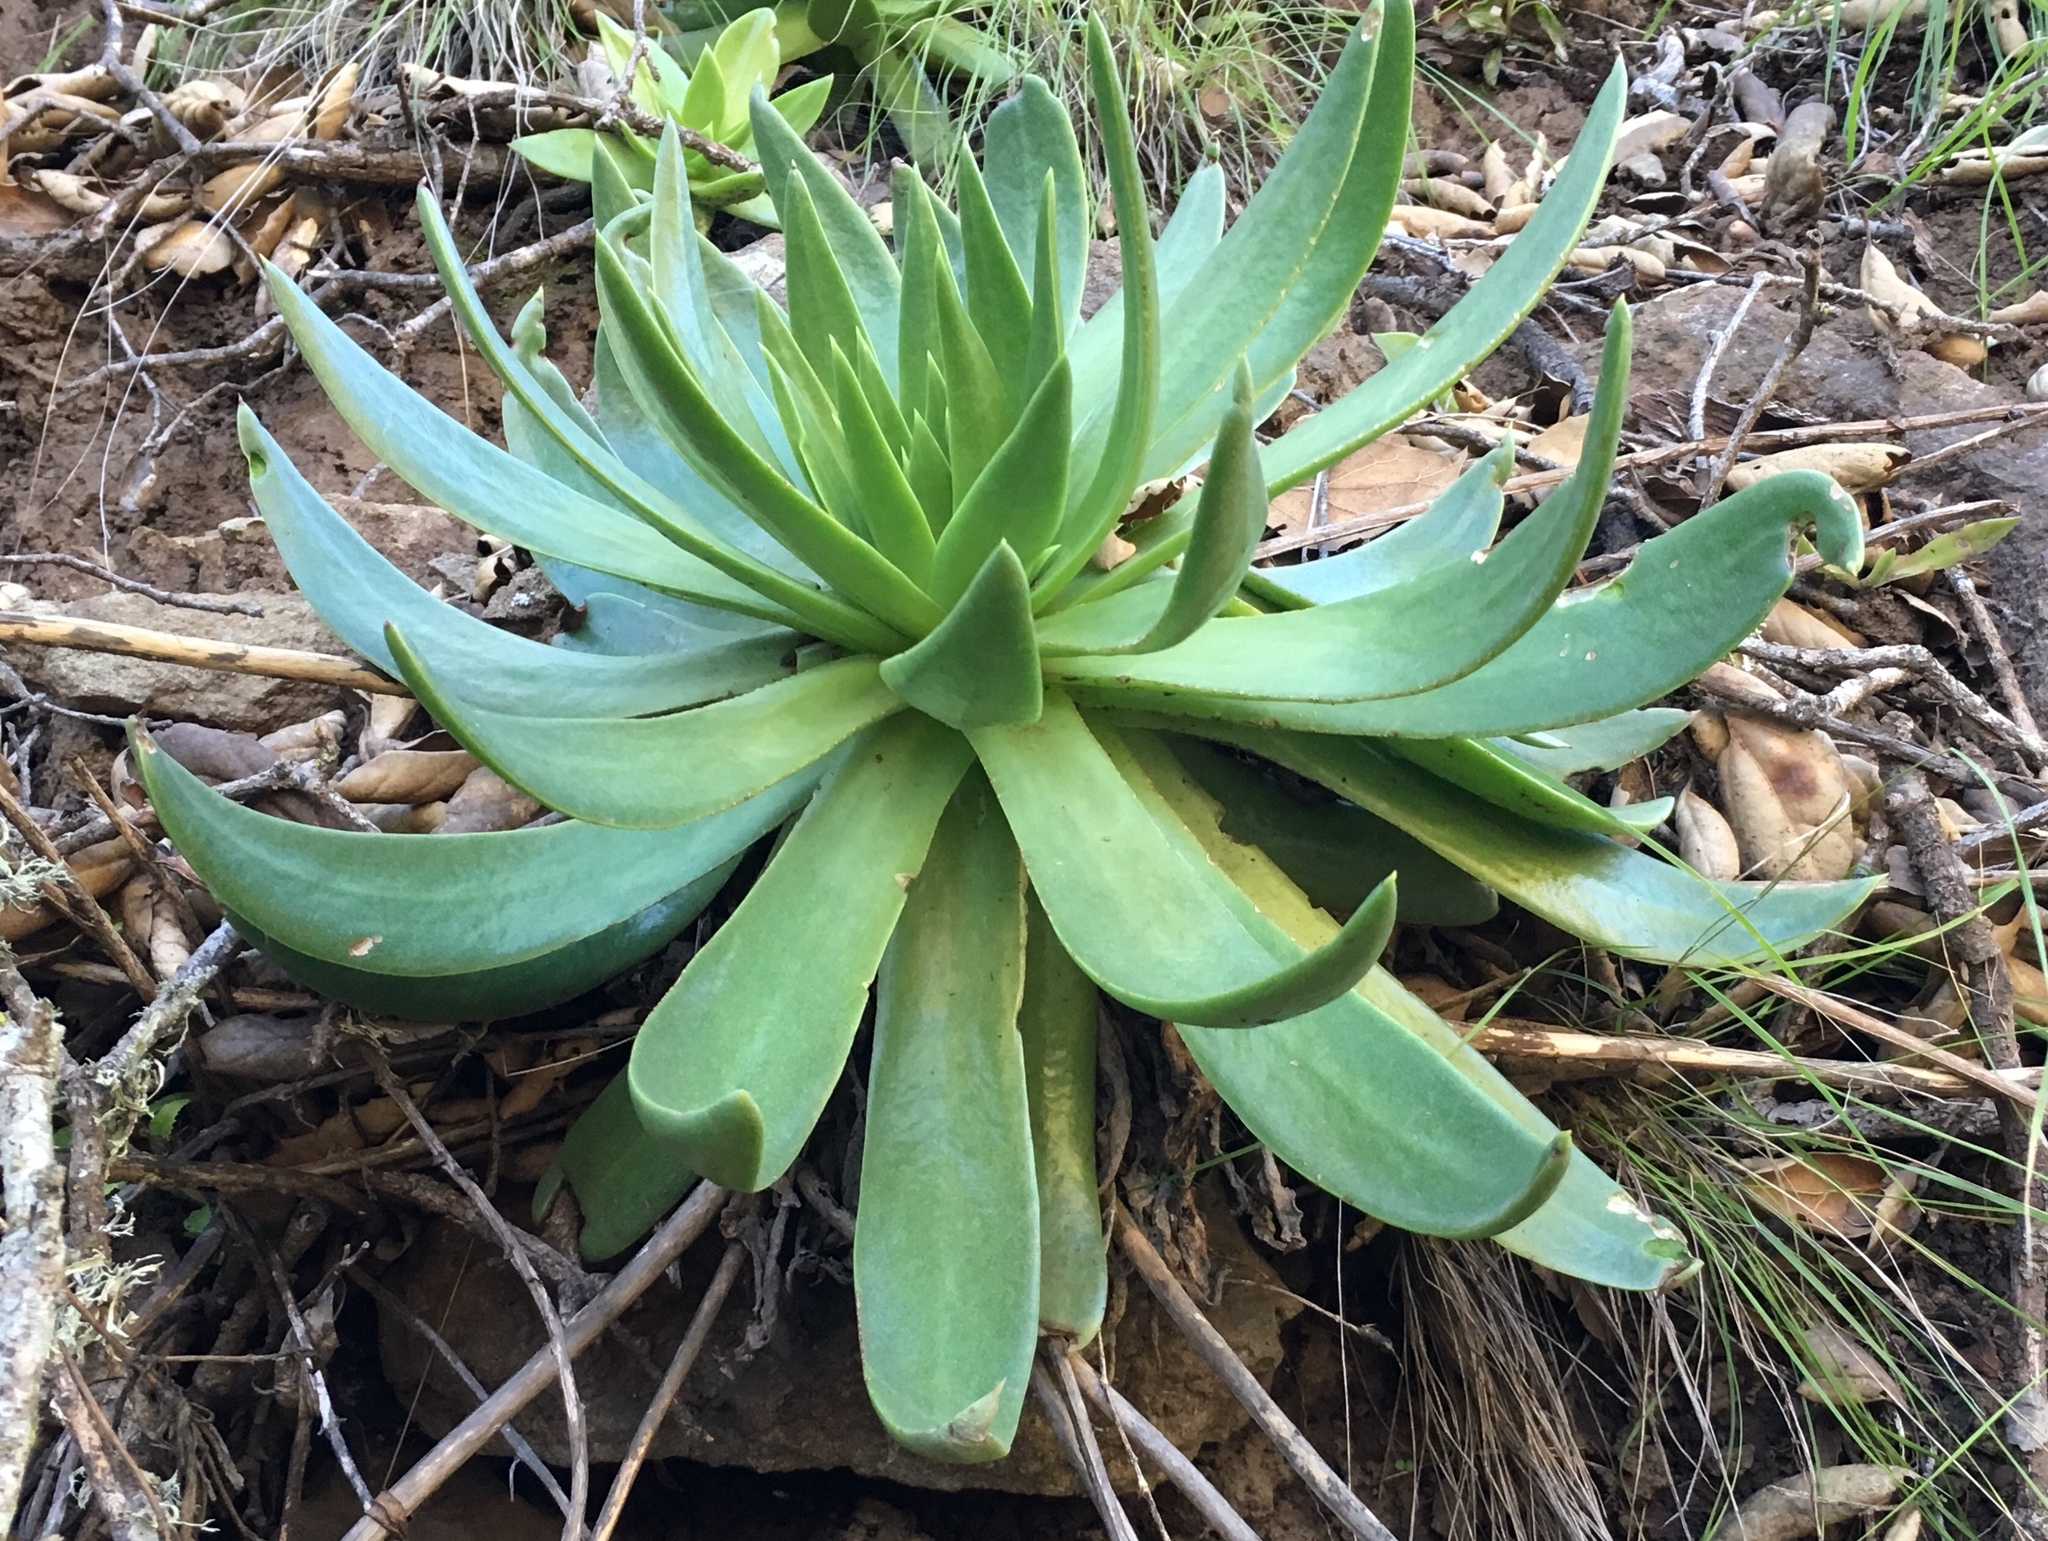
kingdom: Plantae
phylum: Tracheophyta
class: Magnoliopsida
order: Saxifragales
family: Crassulaceae
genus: Dudleya
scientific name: Dudleya candelabrum
